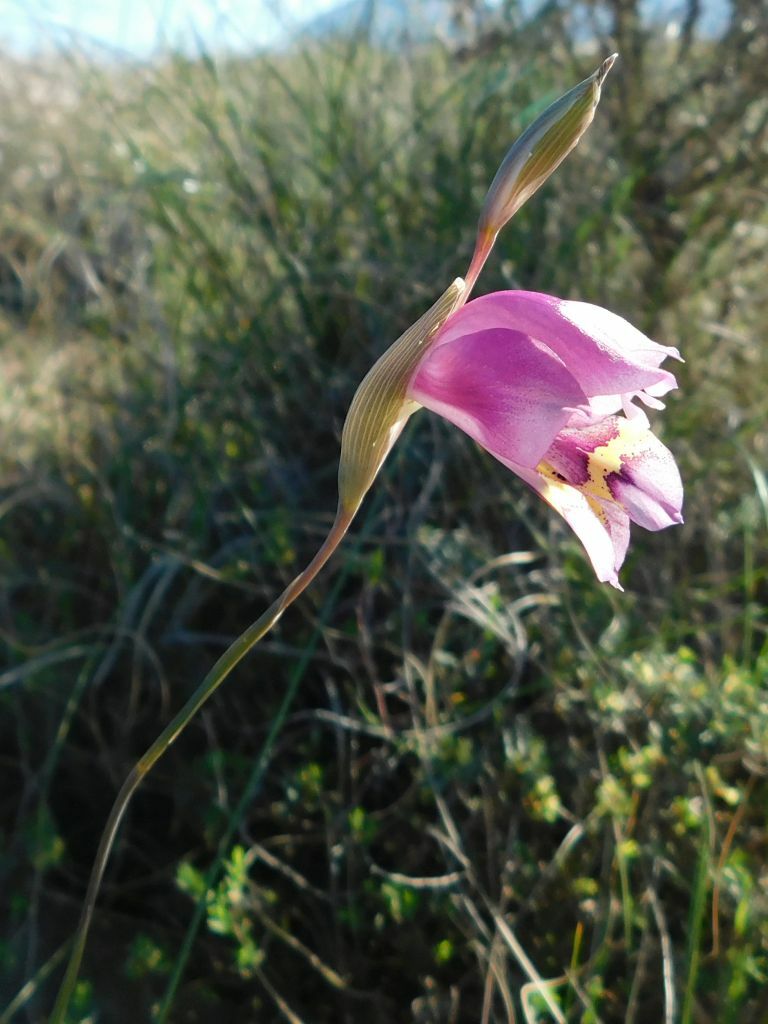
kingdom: Plantae
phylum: Tracheophyta
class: Liliopsida
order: Asparagales
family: Iridaceae
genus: Gladiolus
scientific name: Gladiolus rogersii
